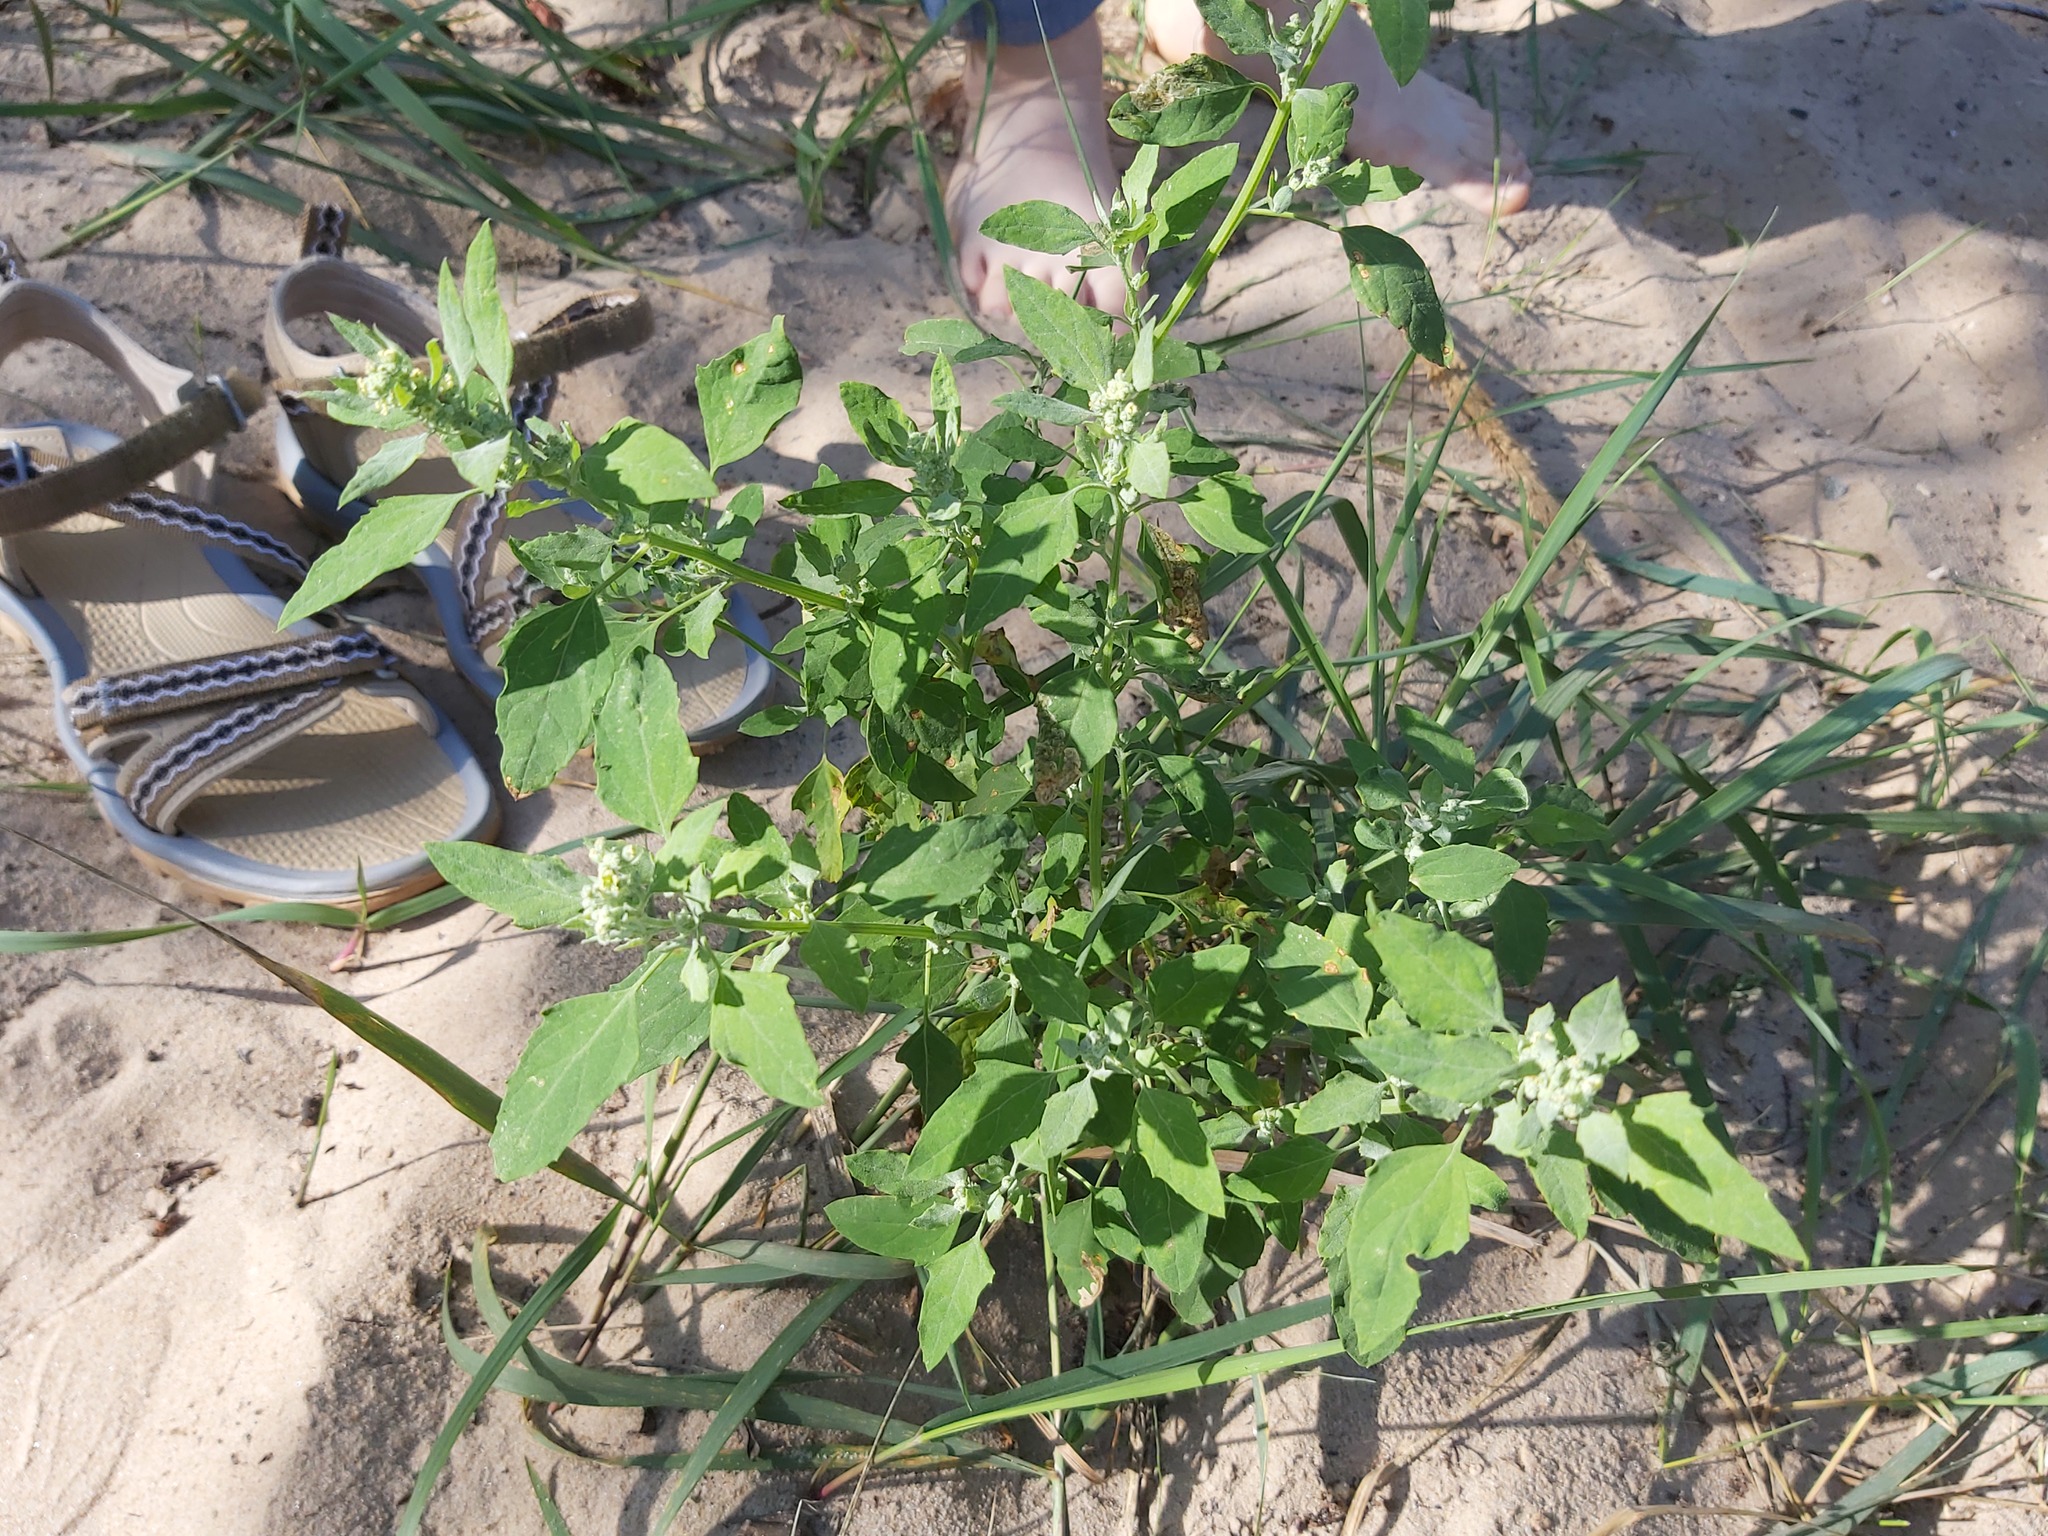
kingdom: Plantae
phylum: Tracheophyta
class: Magnoliopsida
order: Caryophyllales
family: Amaranthaceae
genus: Chenopodium
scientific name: Chenopodium album
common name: Fat-hen
